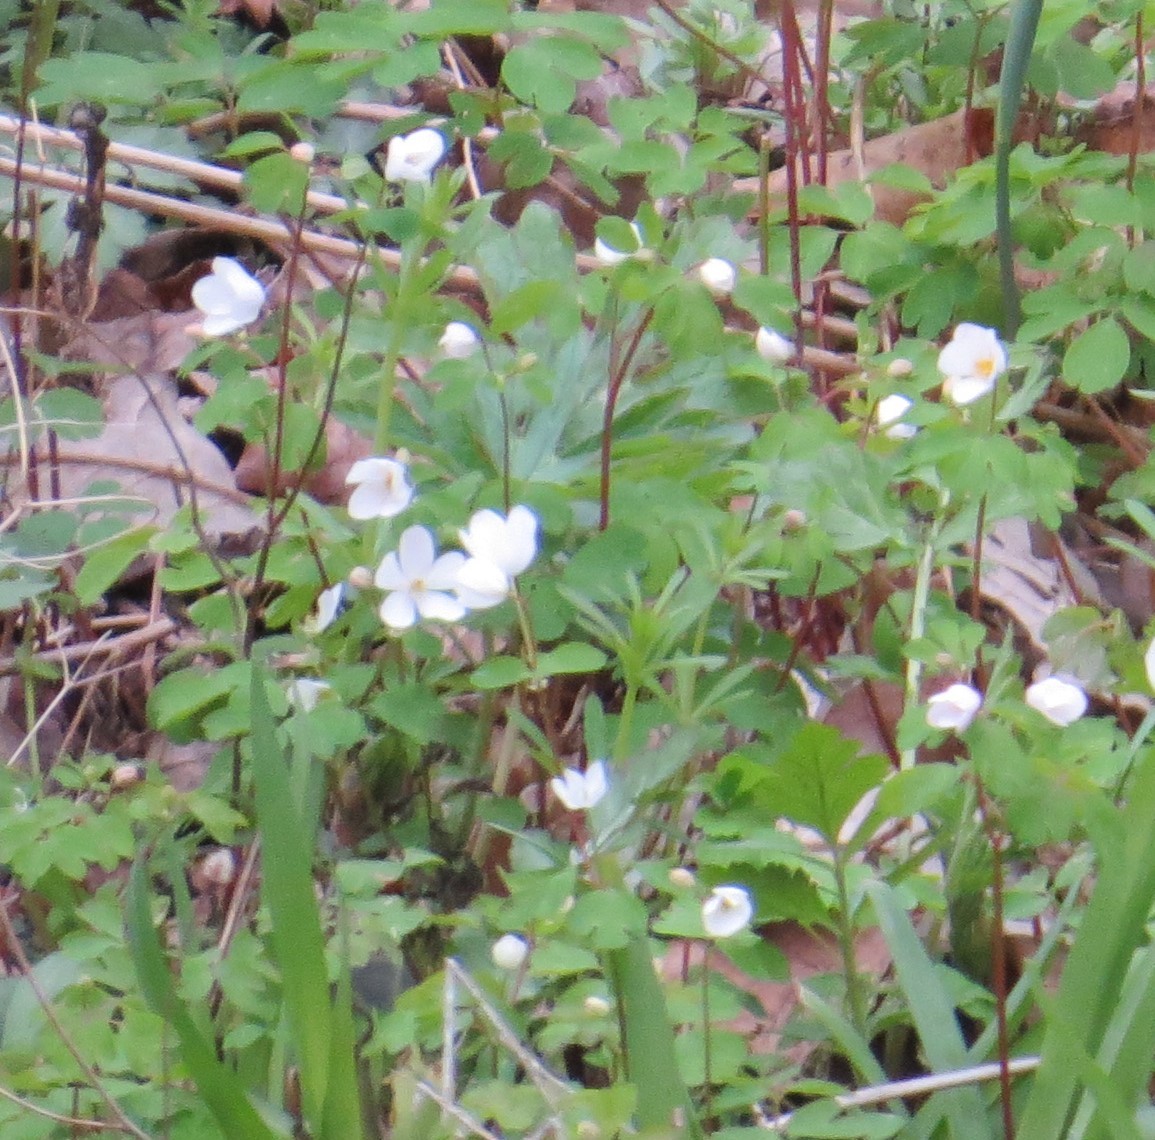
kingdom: Plantae
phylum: Tracheophyta
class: Magnoliopsida
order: Ranunculales
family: Ranunculaceae
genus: Enemion
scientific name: Enemion biternatum
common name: Eastern false rue-anemone
